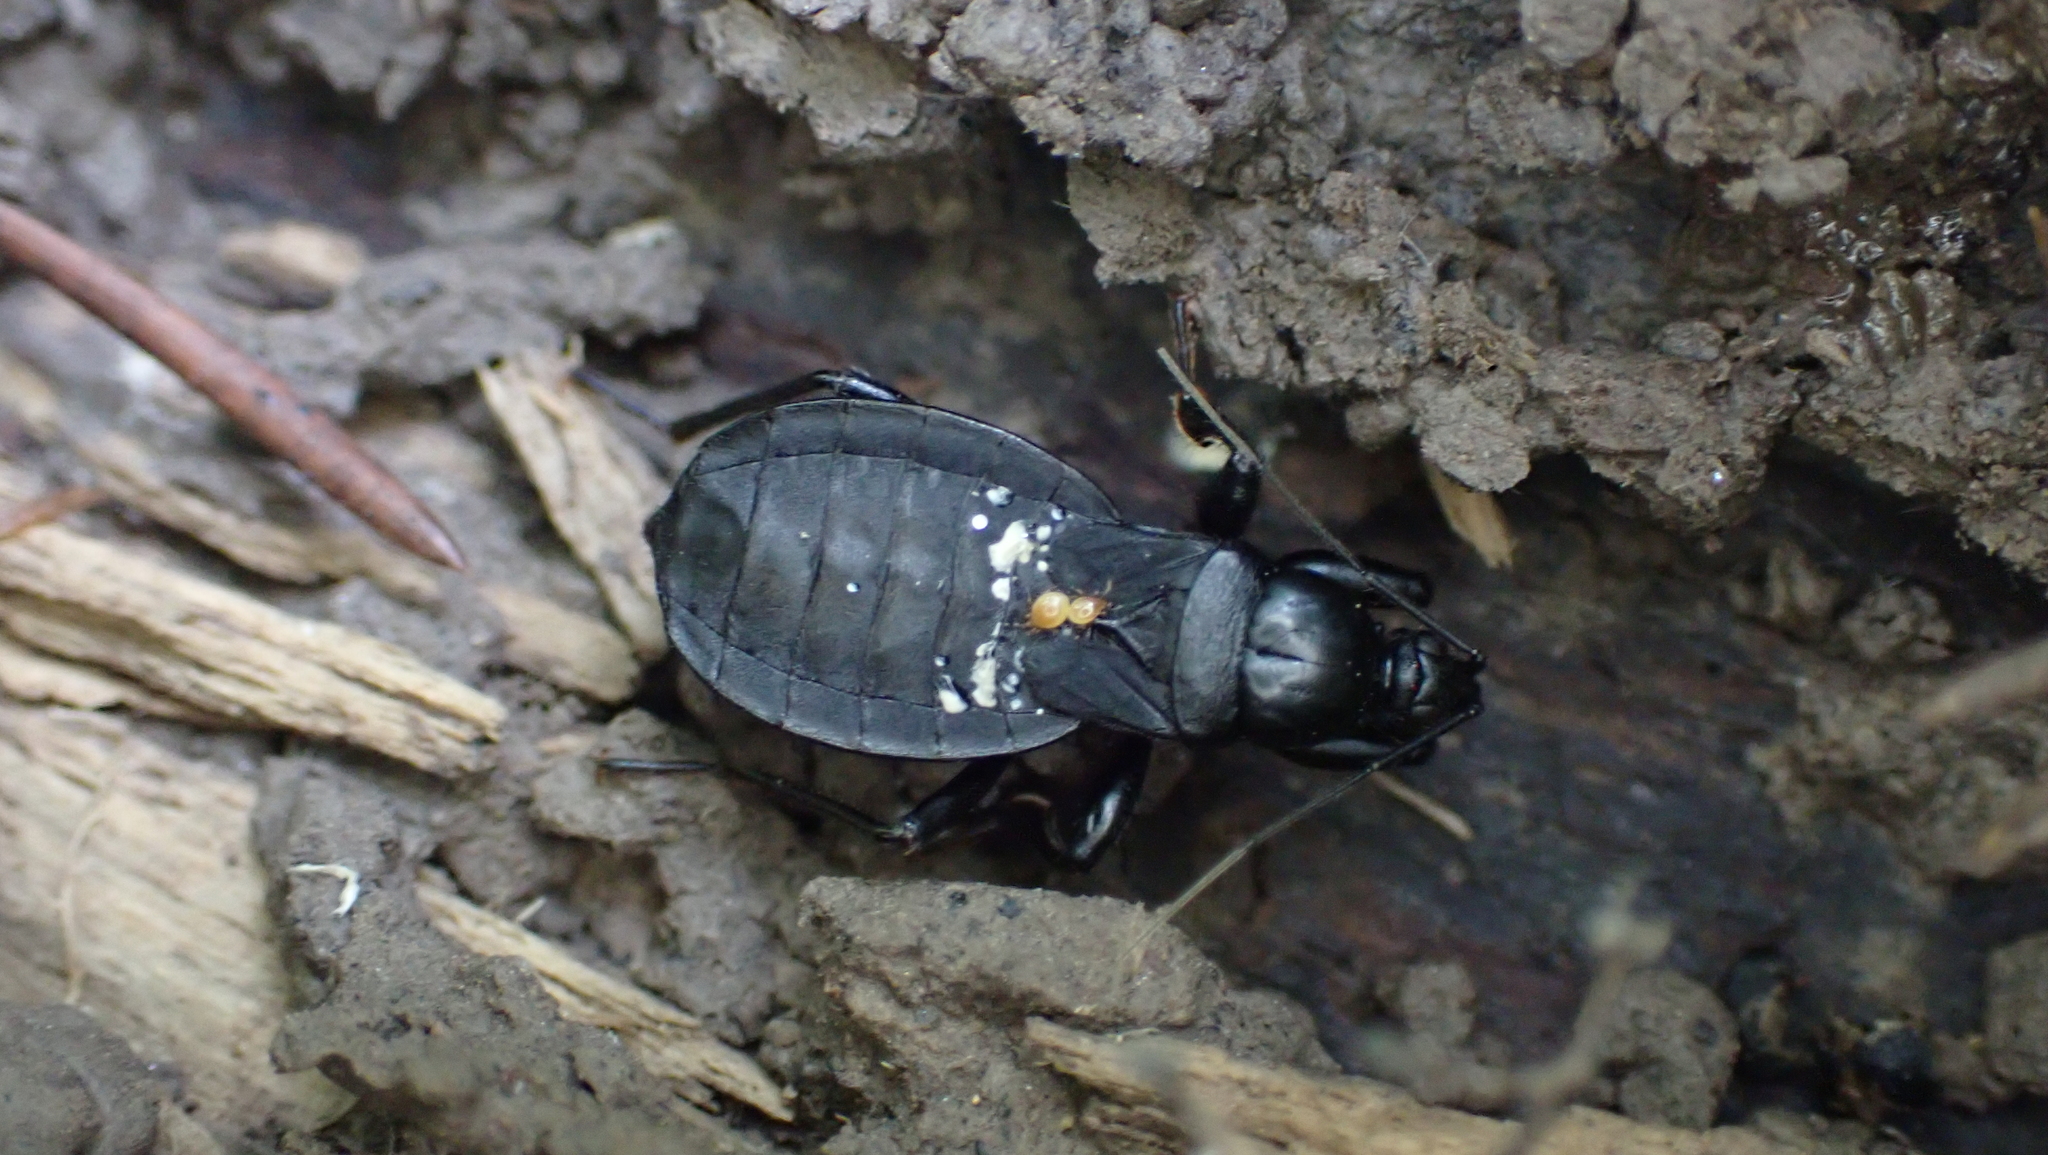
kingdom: Animalia
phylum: Arthropoda
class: Insecta
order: Hemiptera
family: Reduviidae
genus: Melanolestes
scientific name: Melanolestes picipes
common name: Assassin bug
